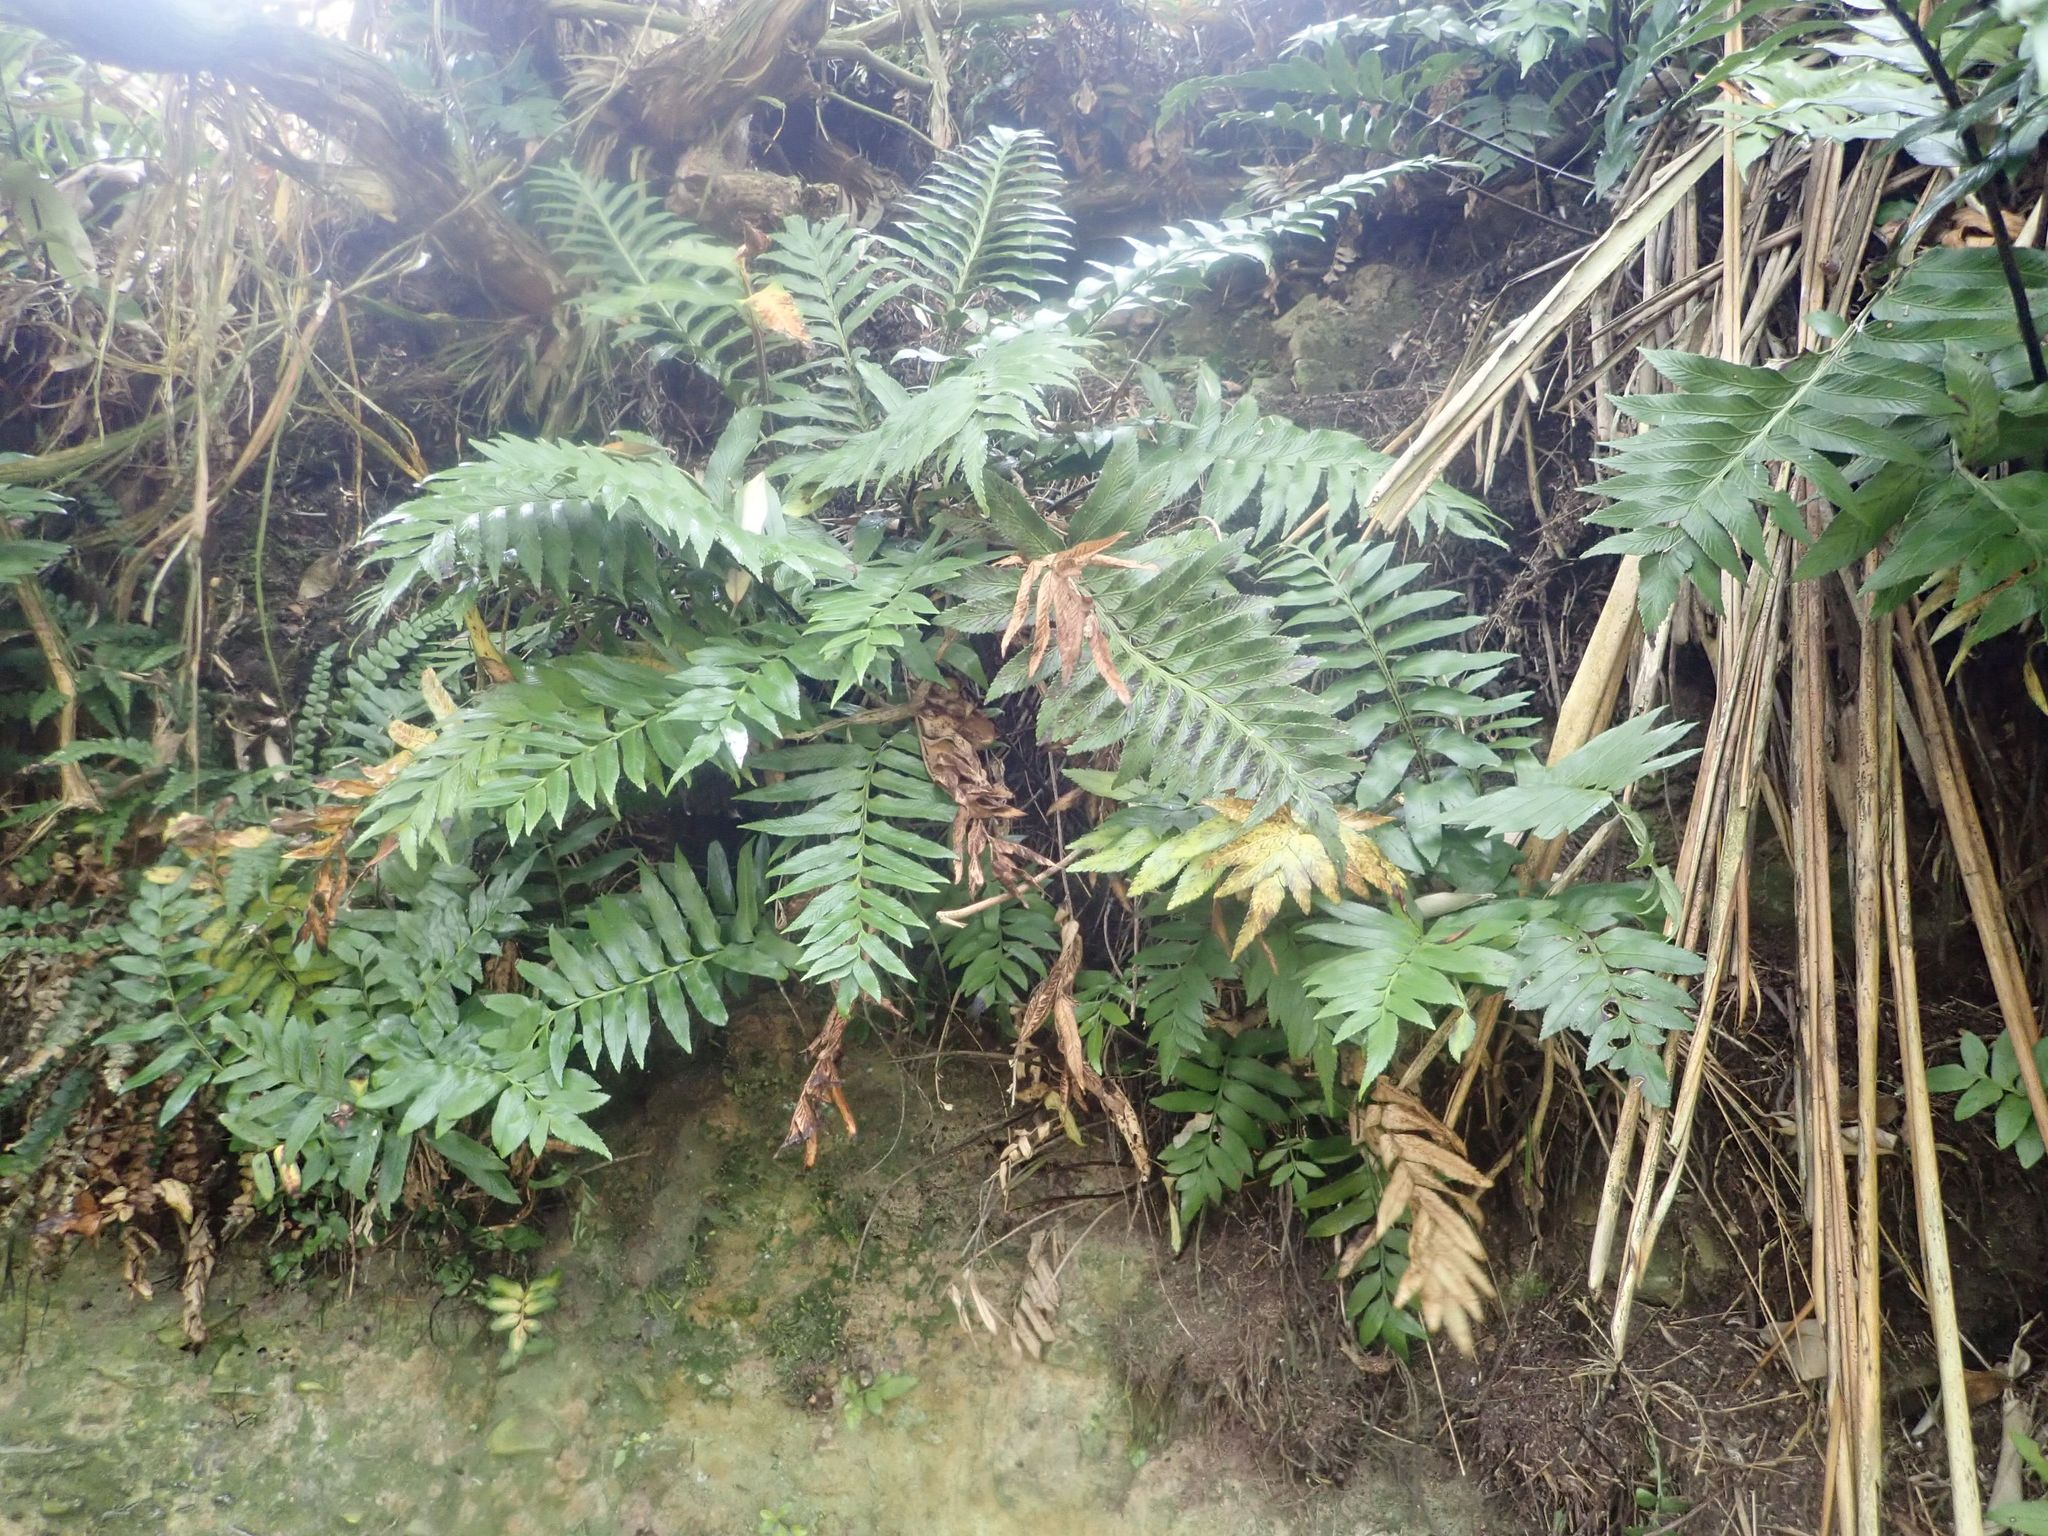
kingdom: Plantae
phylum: Tracheophyta
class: Polypodiopsida
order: Polypodiales
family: Aspleniaceae
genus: Asplenium
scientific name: Asplenium obtusatum
